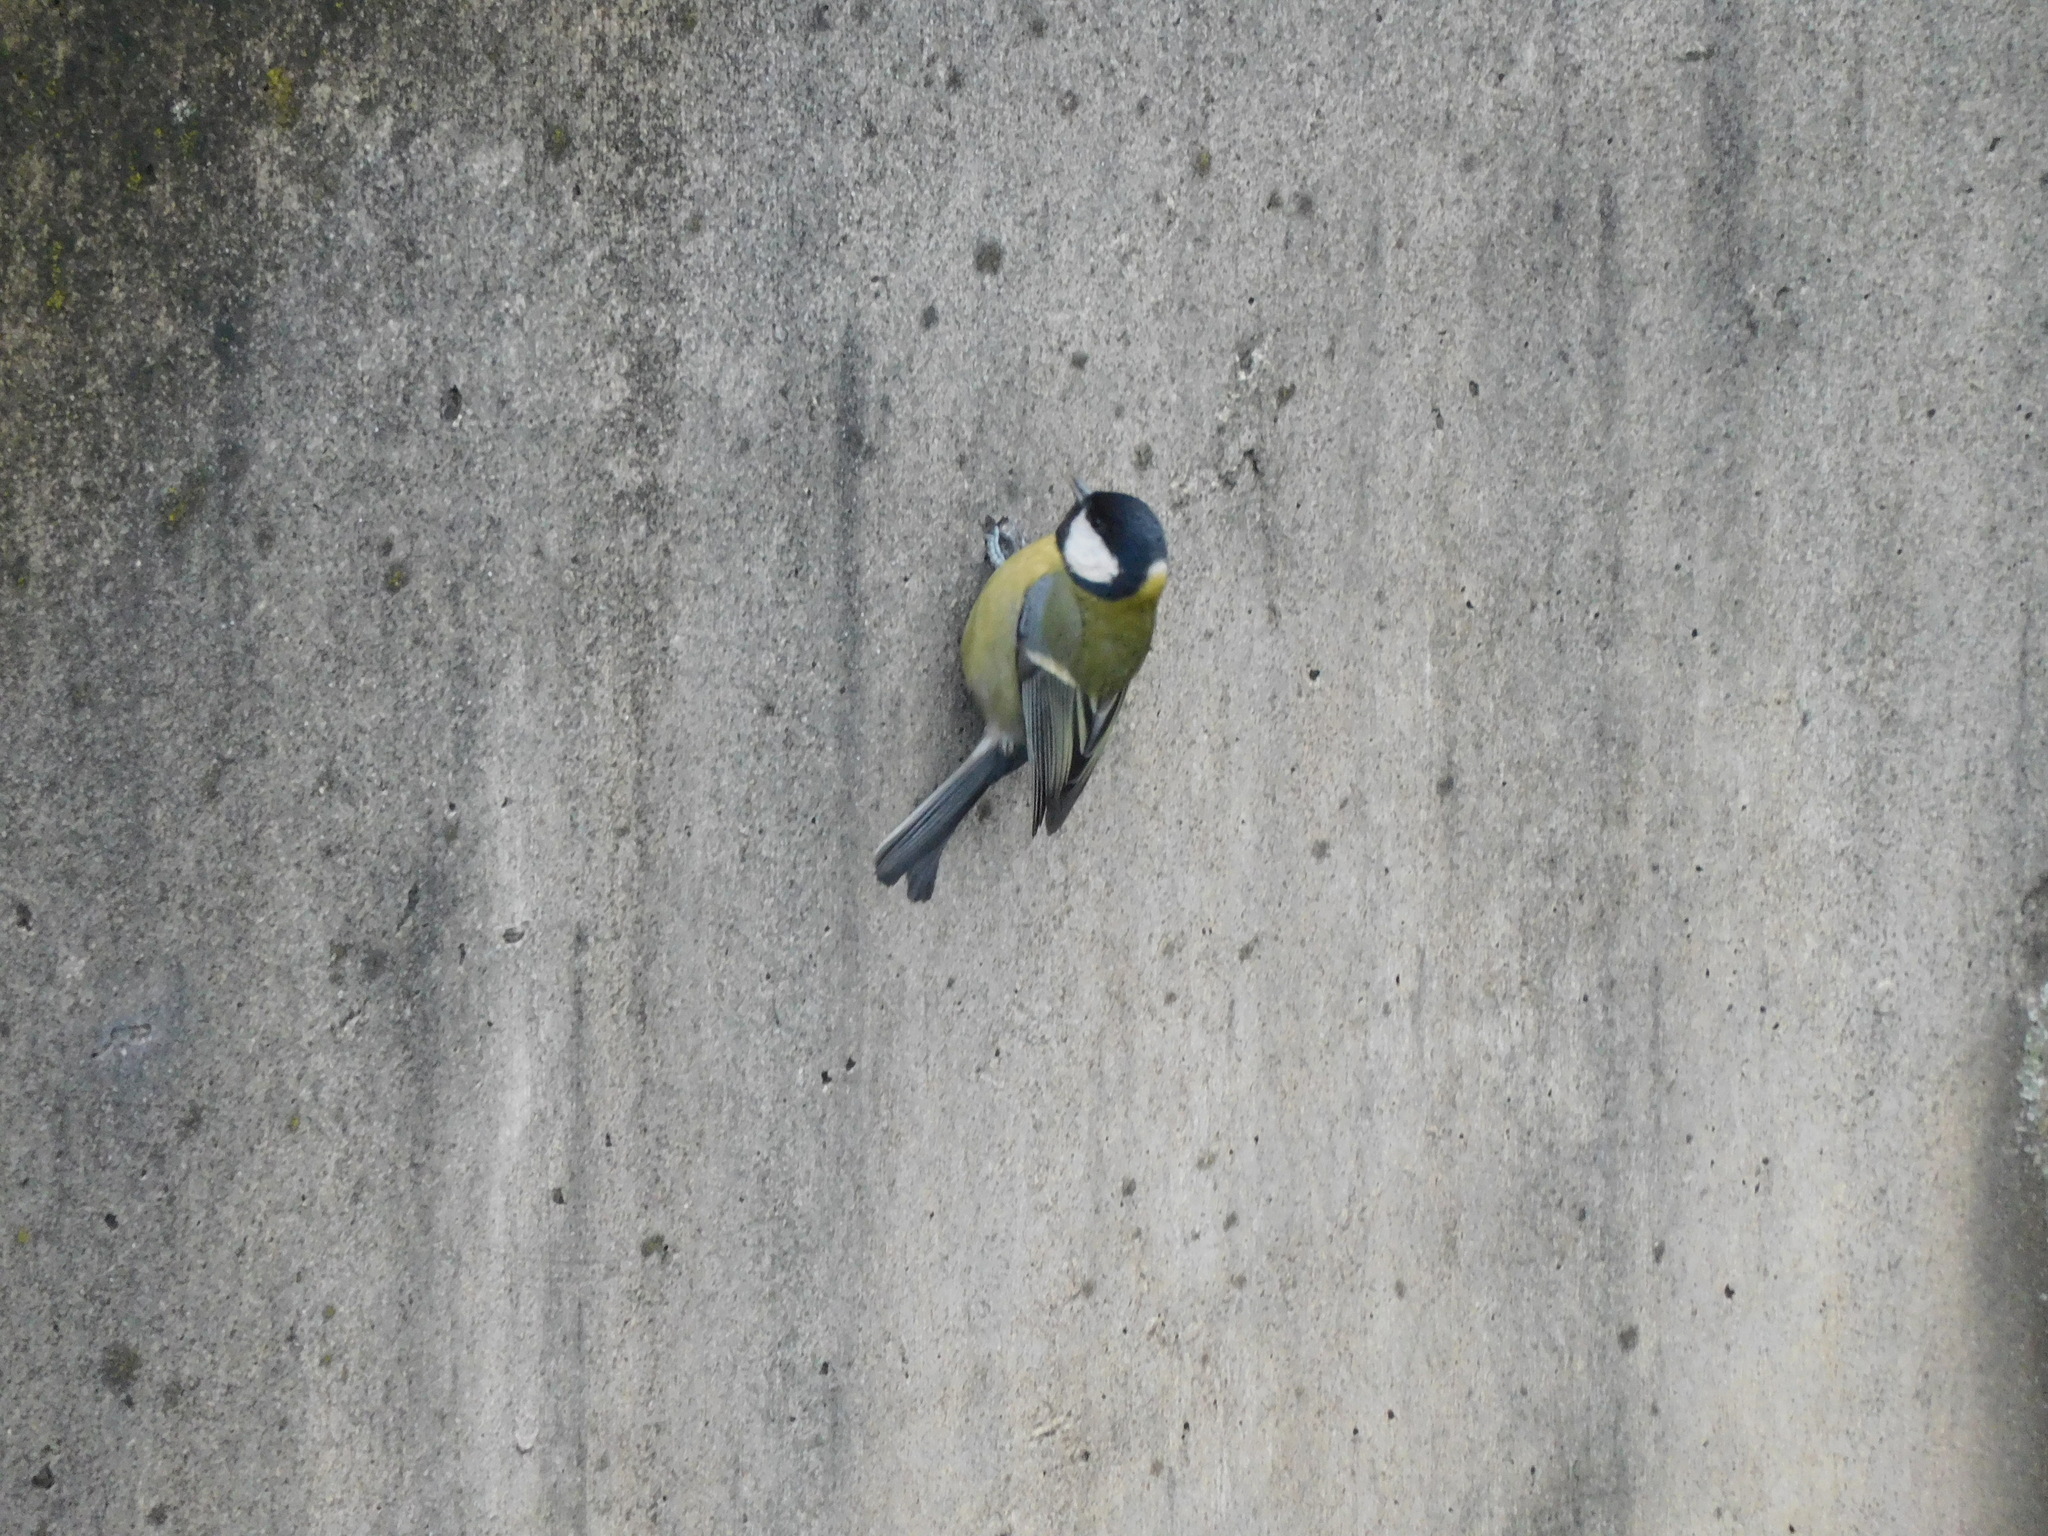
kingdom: Animalia
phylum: Chordata
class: Aves
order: Passeriformes
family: Paridae
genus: Parus
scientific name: Parus major
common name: Great tit
